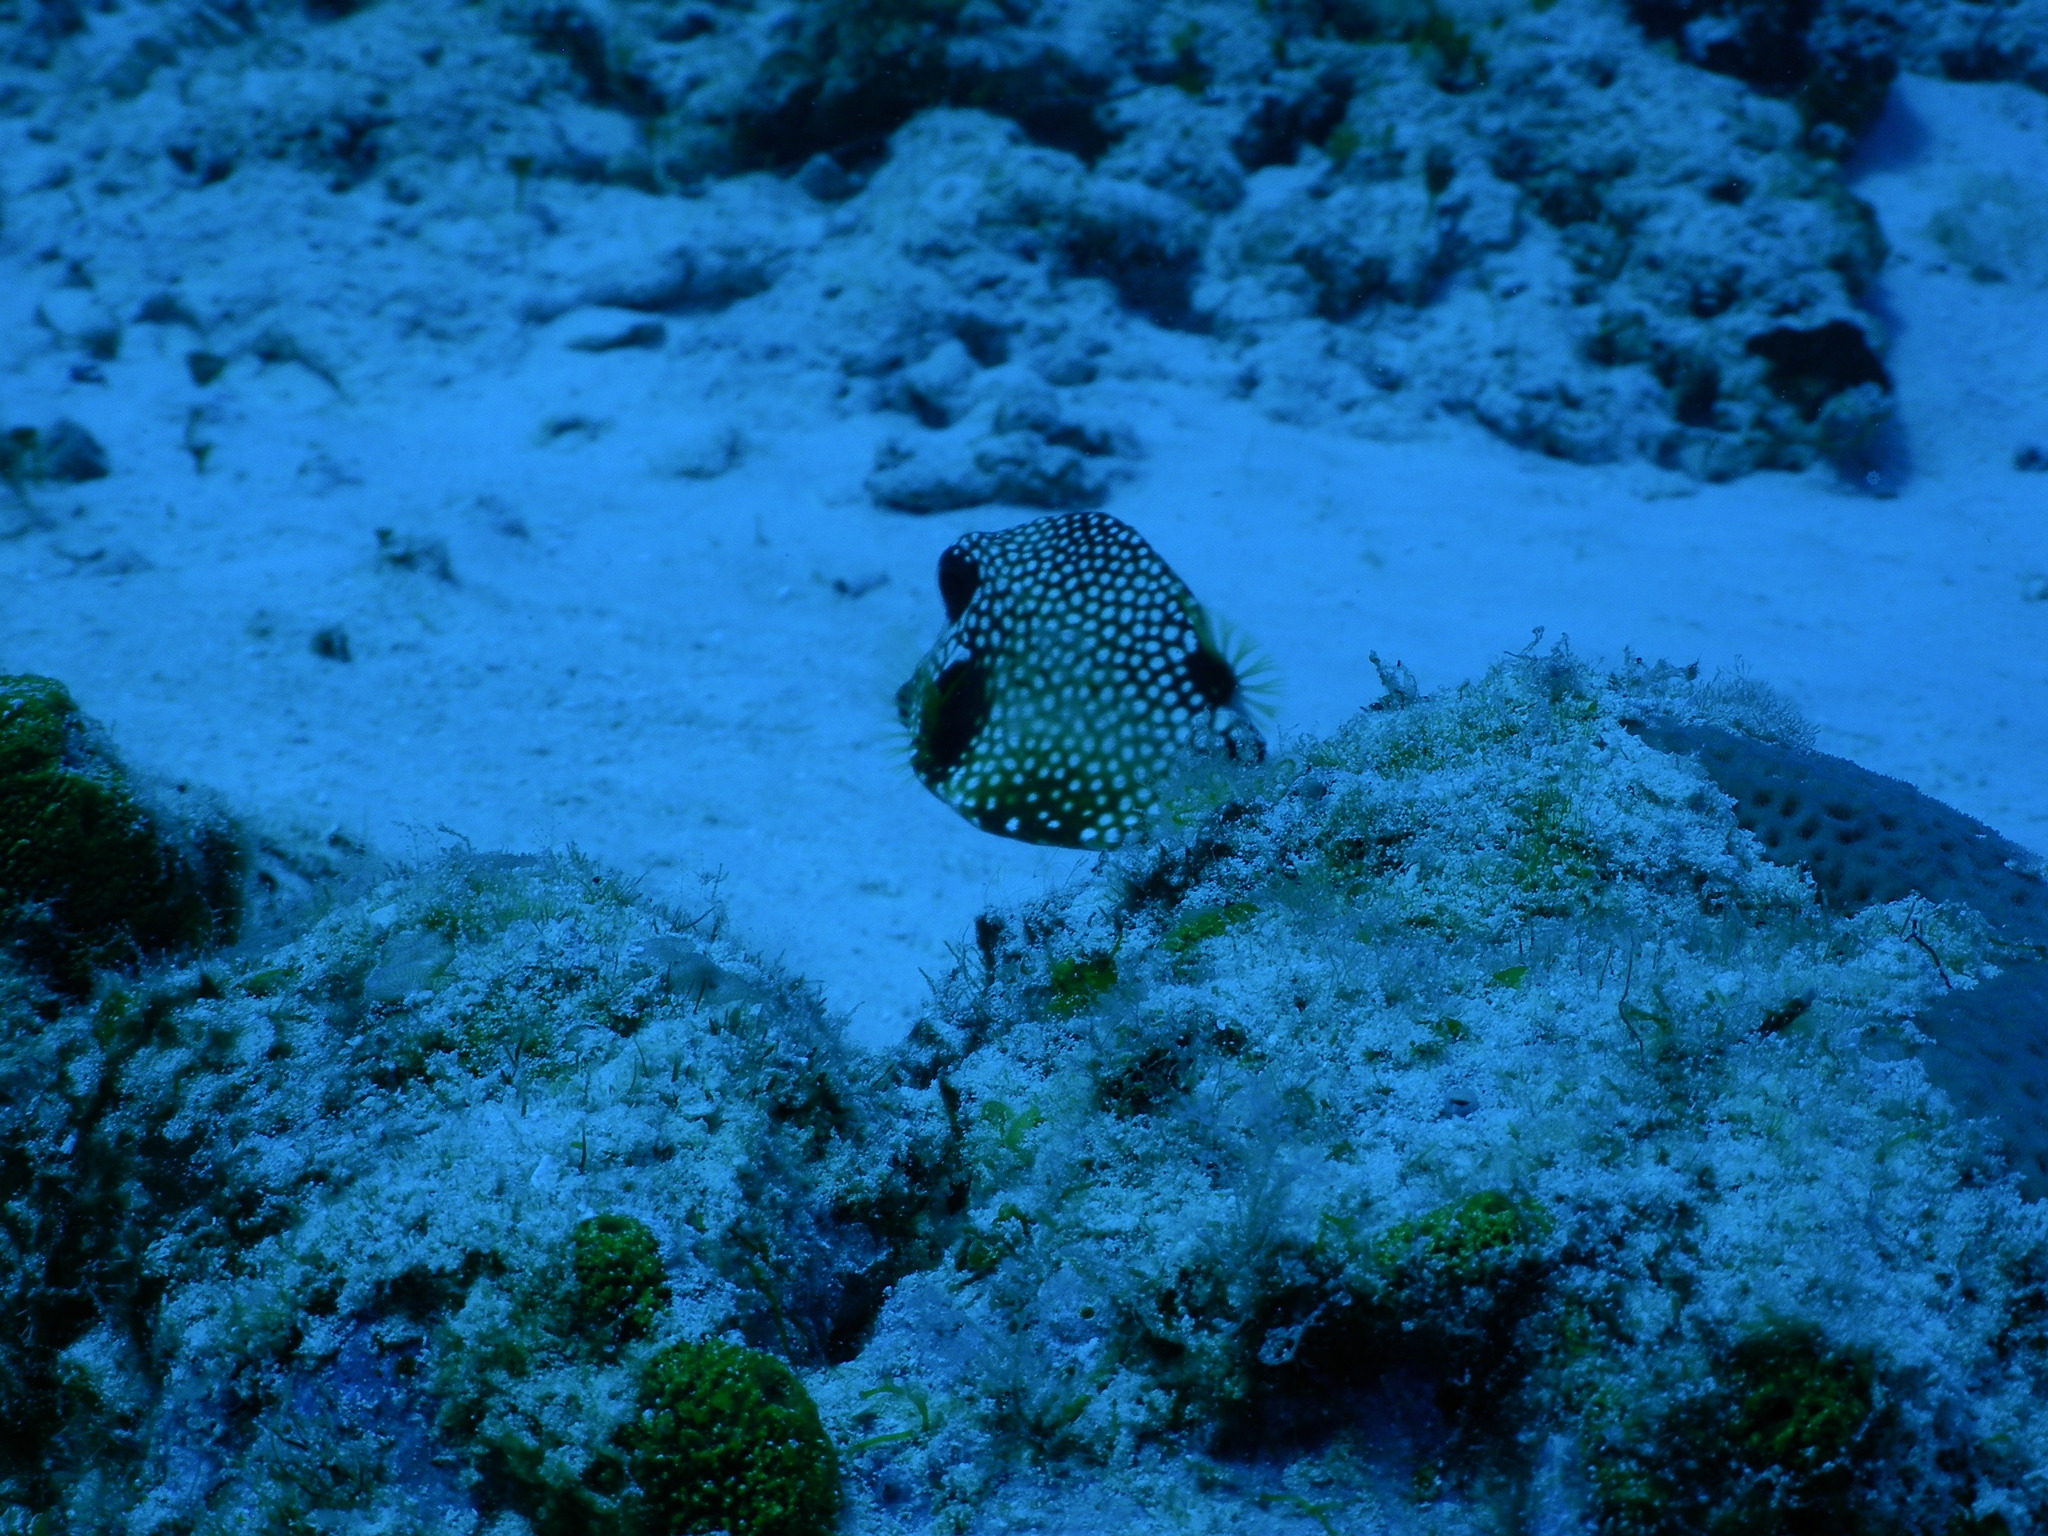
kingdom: Animalia
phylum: Chordata
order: Tetraodontiformes
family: Ostraciidae
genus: Lactophrys
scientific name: Lactophrys triqueter
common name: Smooth trunkfish
